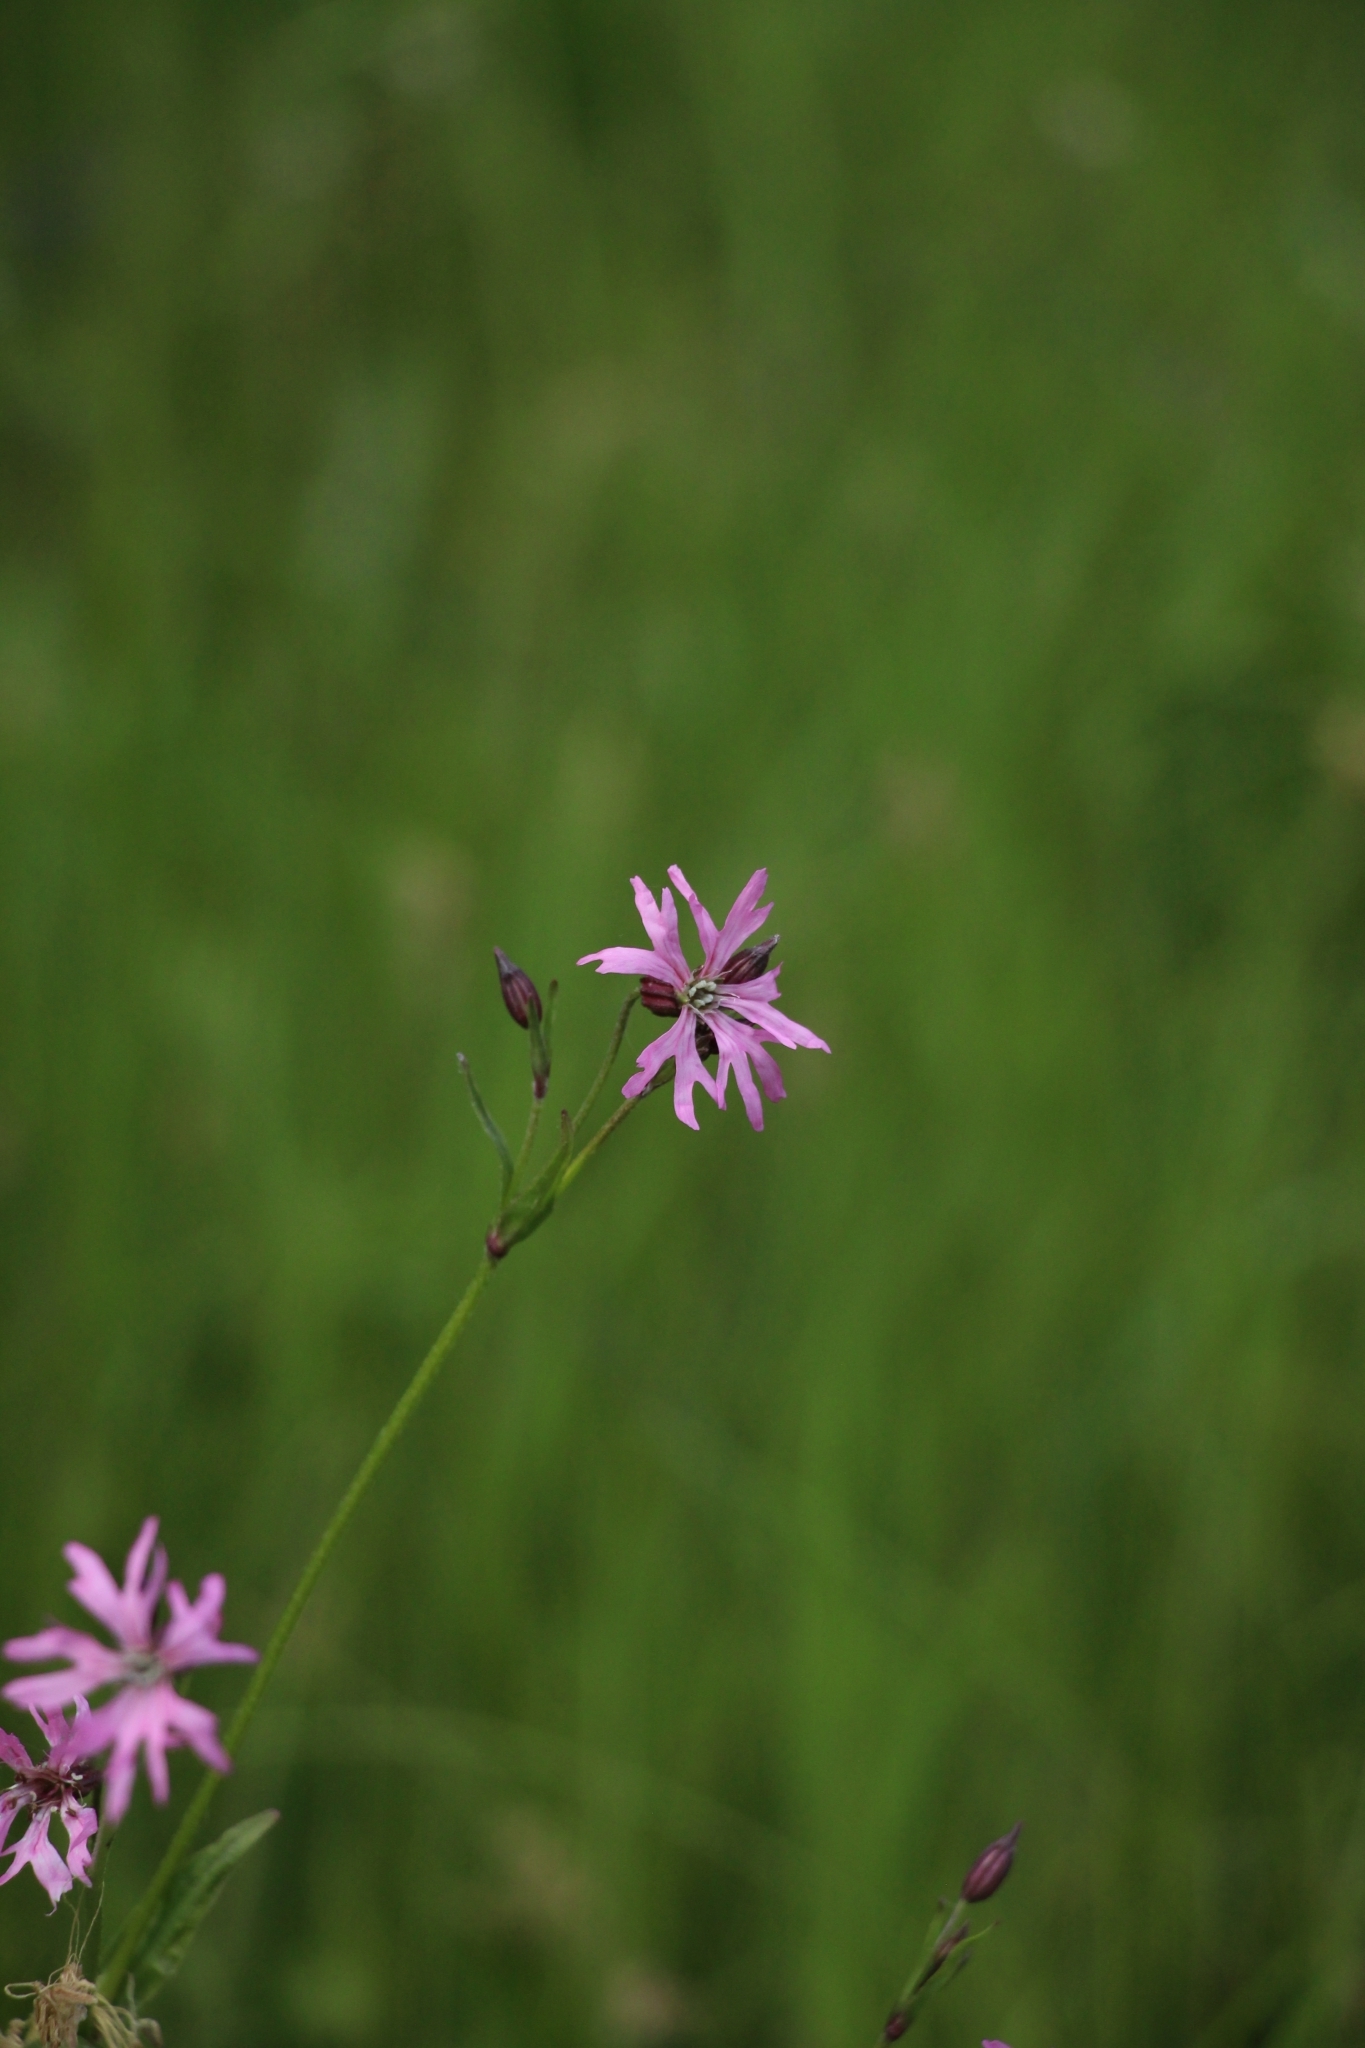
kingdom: Plantae
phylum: Tracheophyta
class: Magnoliopsida
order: Caryophyllales
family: Caryophyllaceae
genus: Silene
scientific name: Silene flos-cuculi
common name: Ragged-robin
